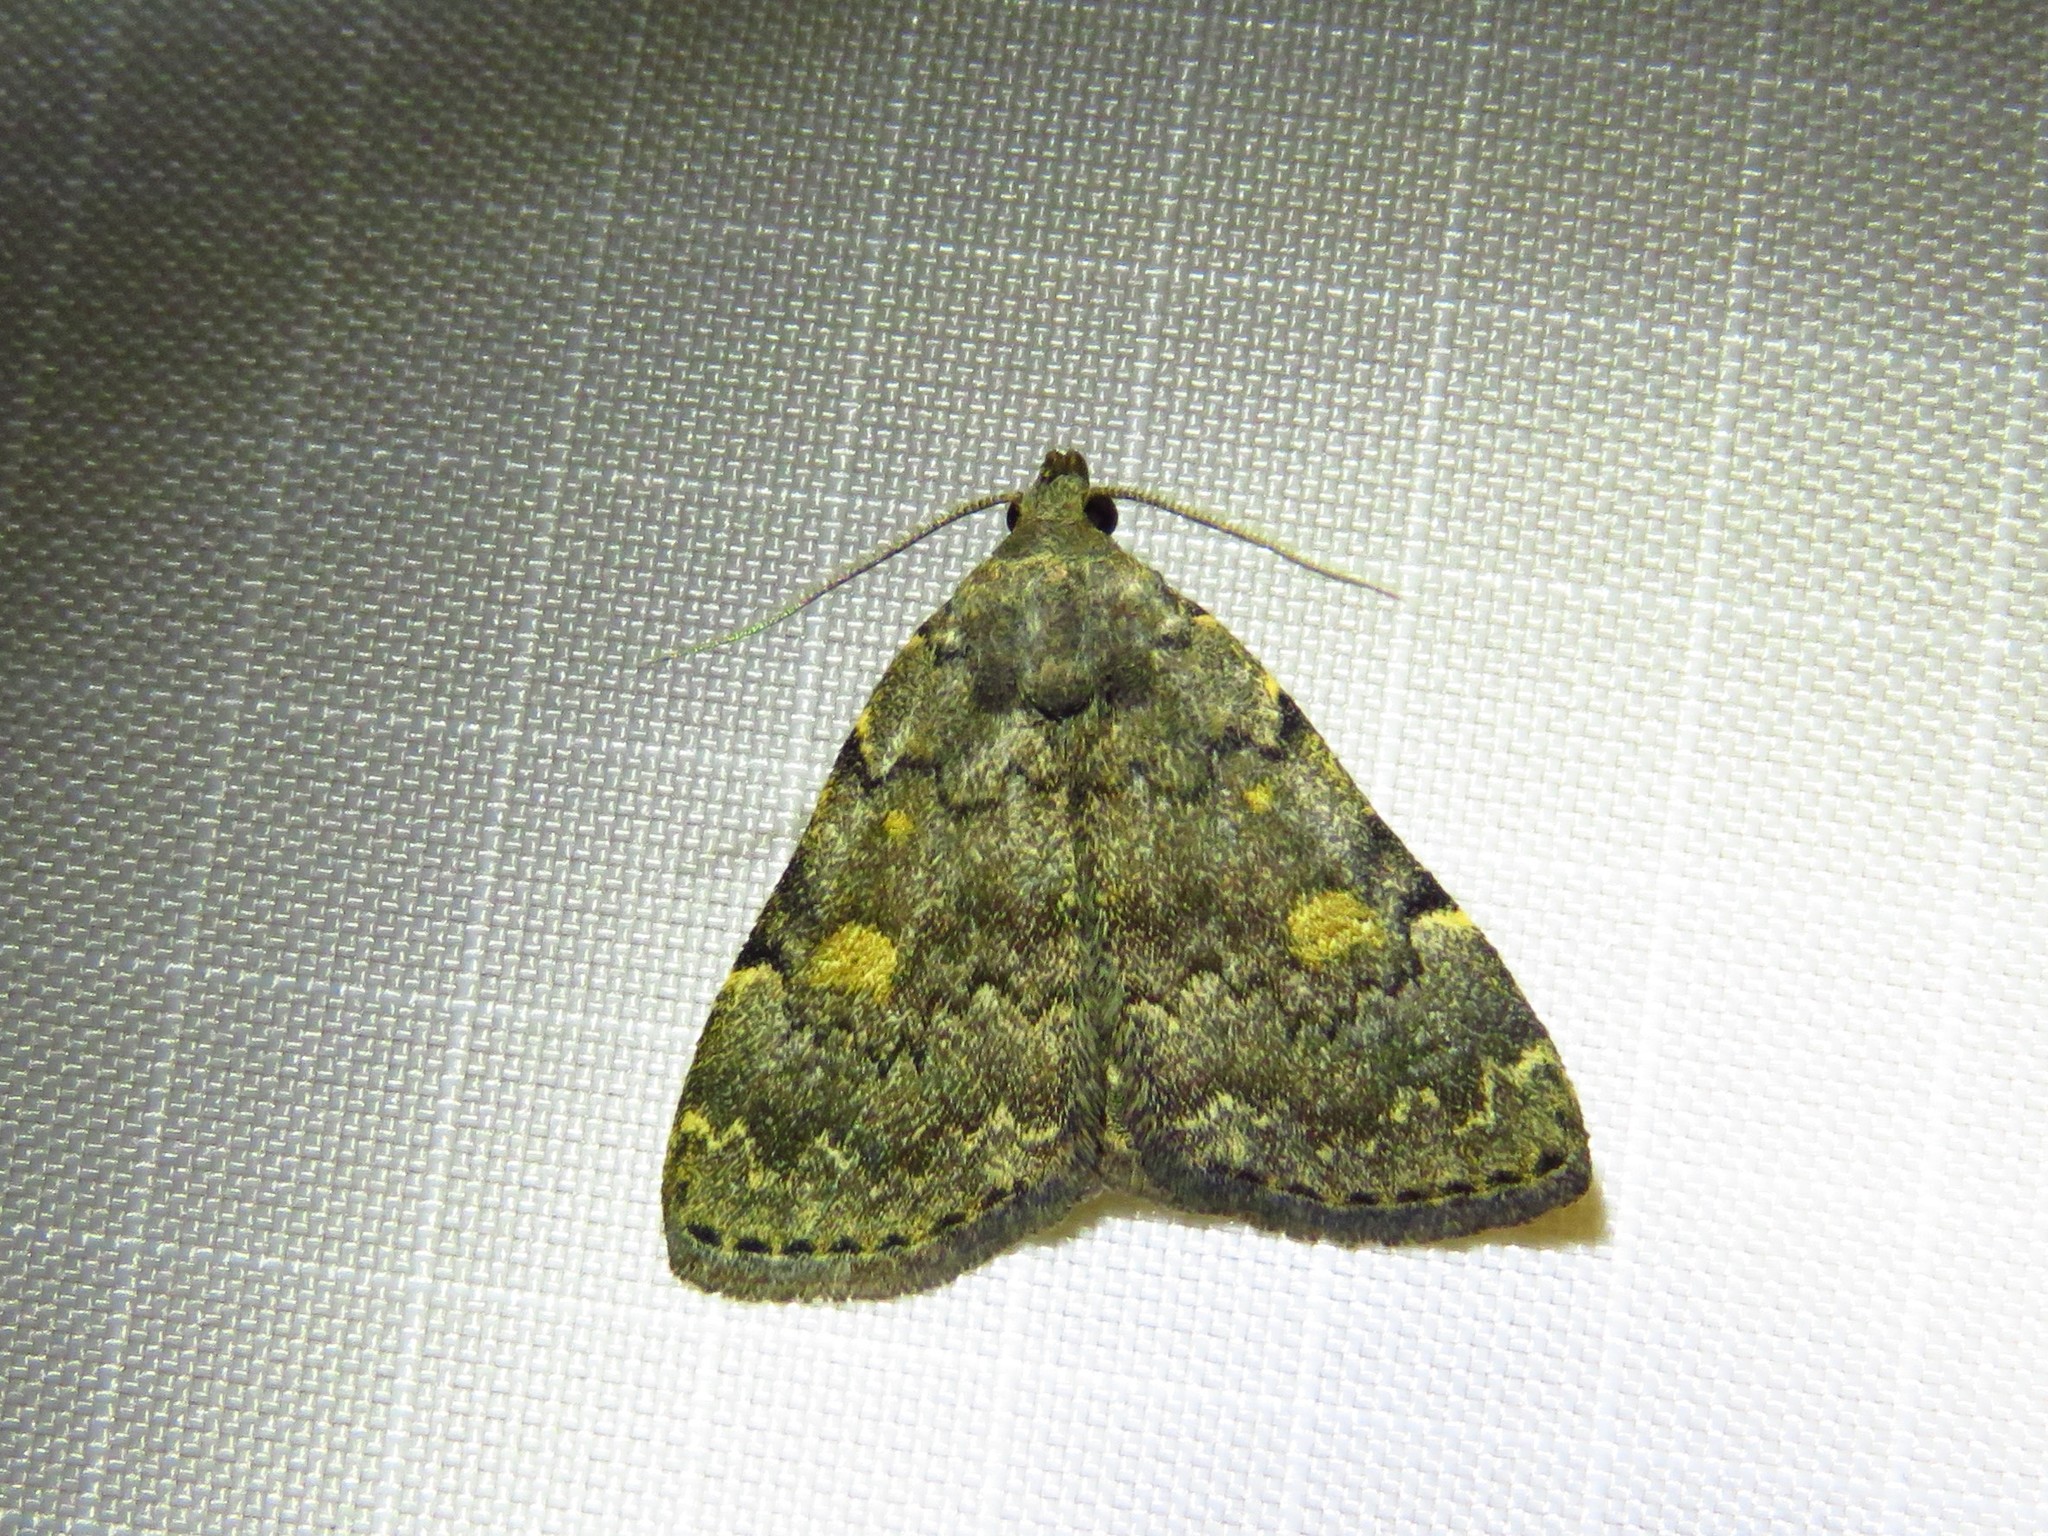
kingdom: Animalia
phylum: Arthropoda
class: Insecta
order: Lepidoptera
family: Erebidae
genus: Idia
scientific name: Idia aemula
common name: Common idia moth
